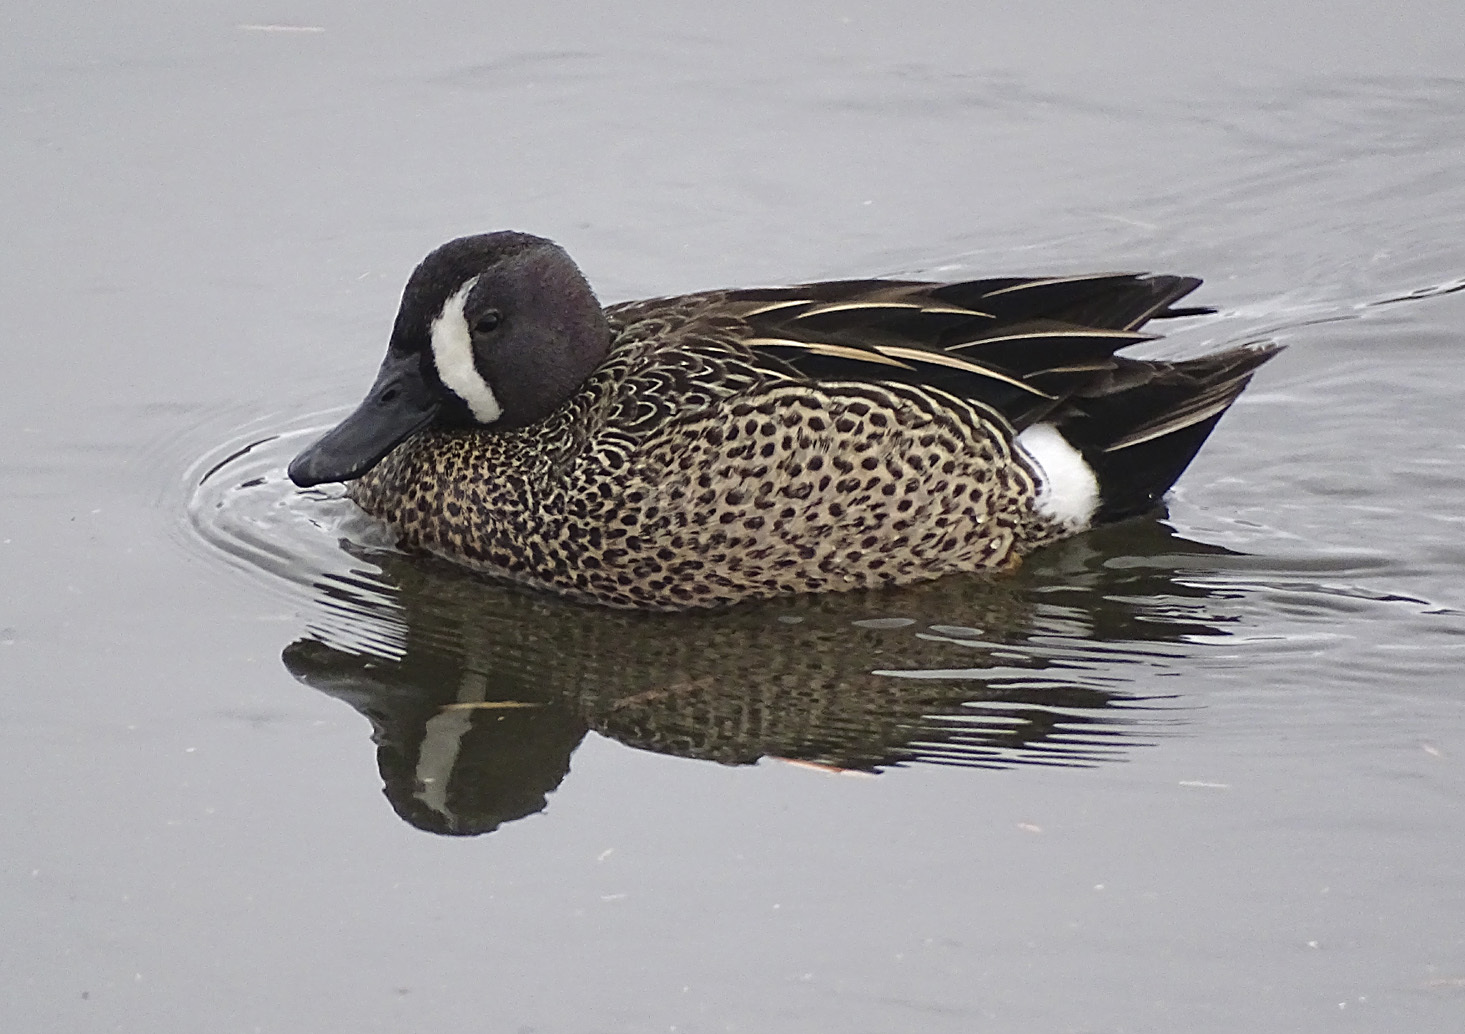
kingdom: Animalia
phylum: Chordata
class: Aves
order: Anseriformes
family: Anatidae
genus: Spatula
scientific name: Spatula discors
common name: Blue-winged teal
